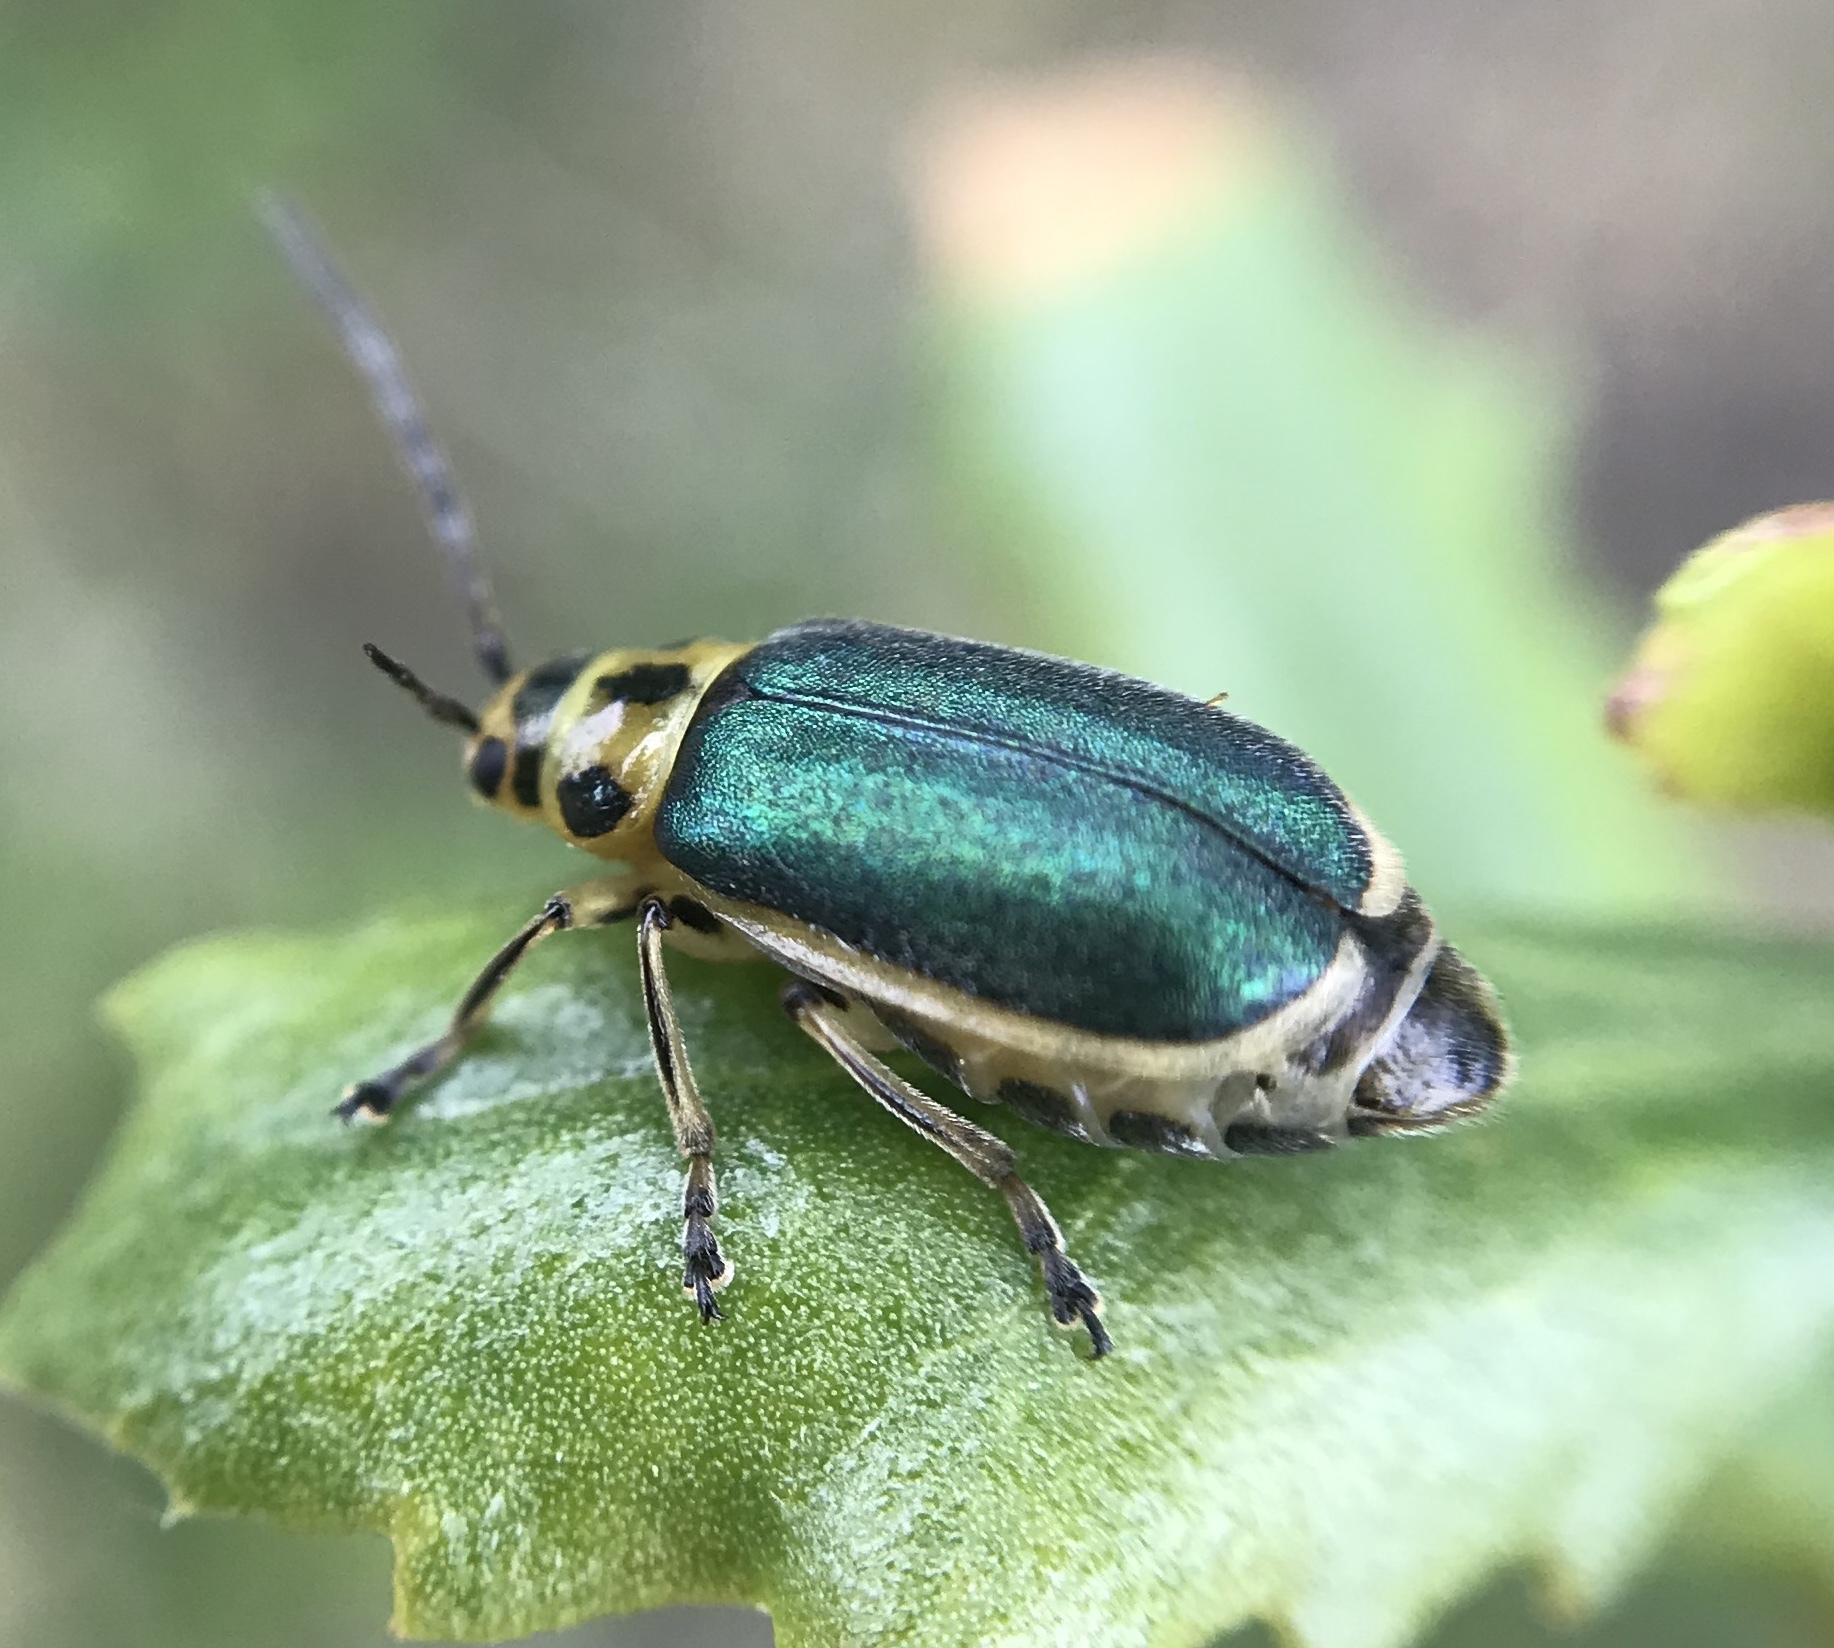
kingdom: Animalia
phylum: Arthropoda
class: Insecta
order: Coleoptera
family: Chrysomelidae
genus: Trirhabda
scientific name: Trirhabda flavolimbata
